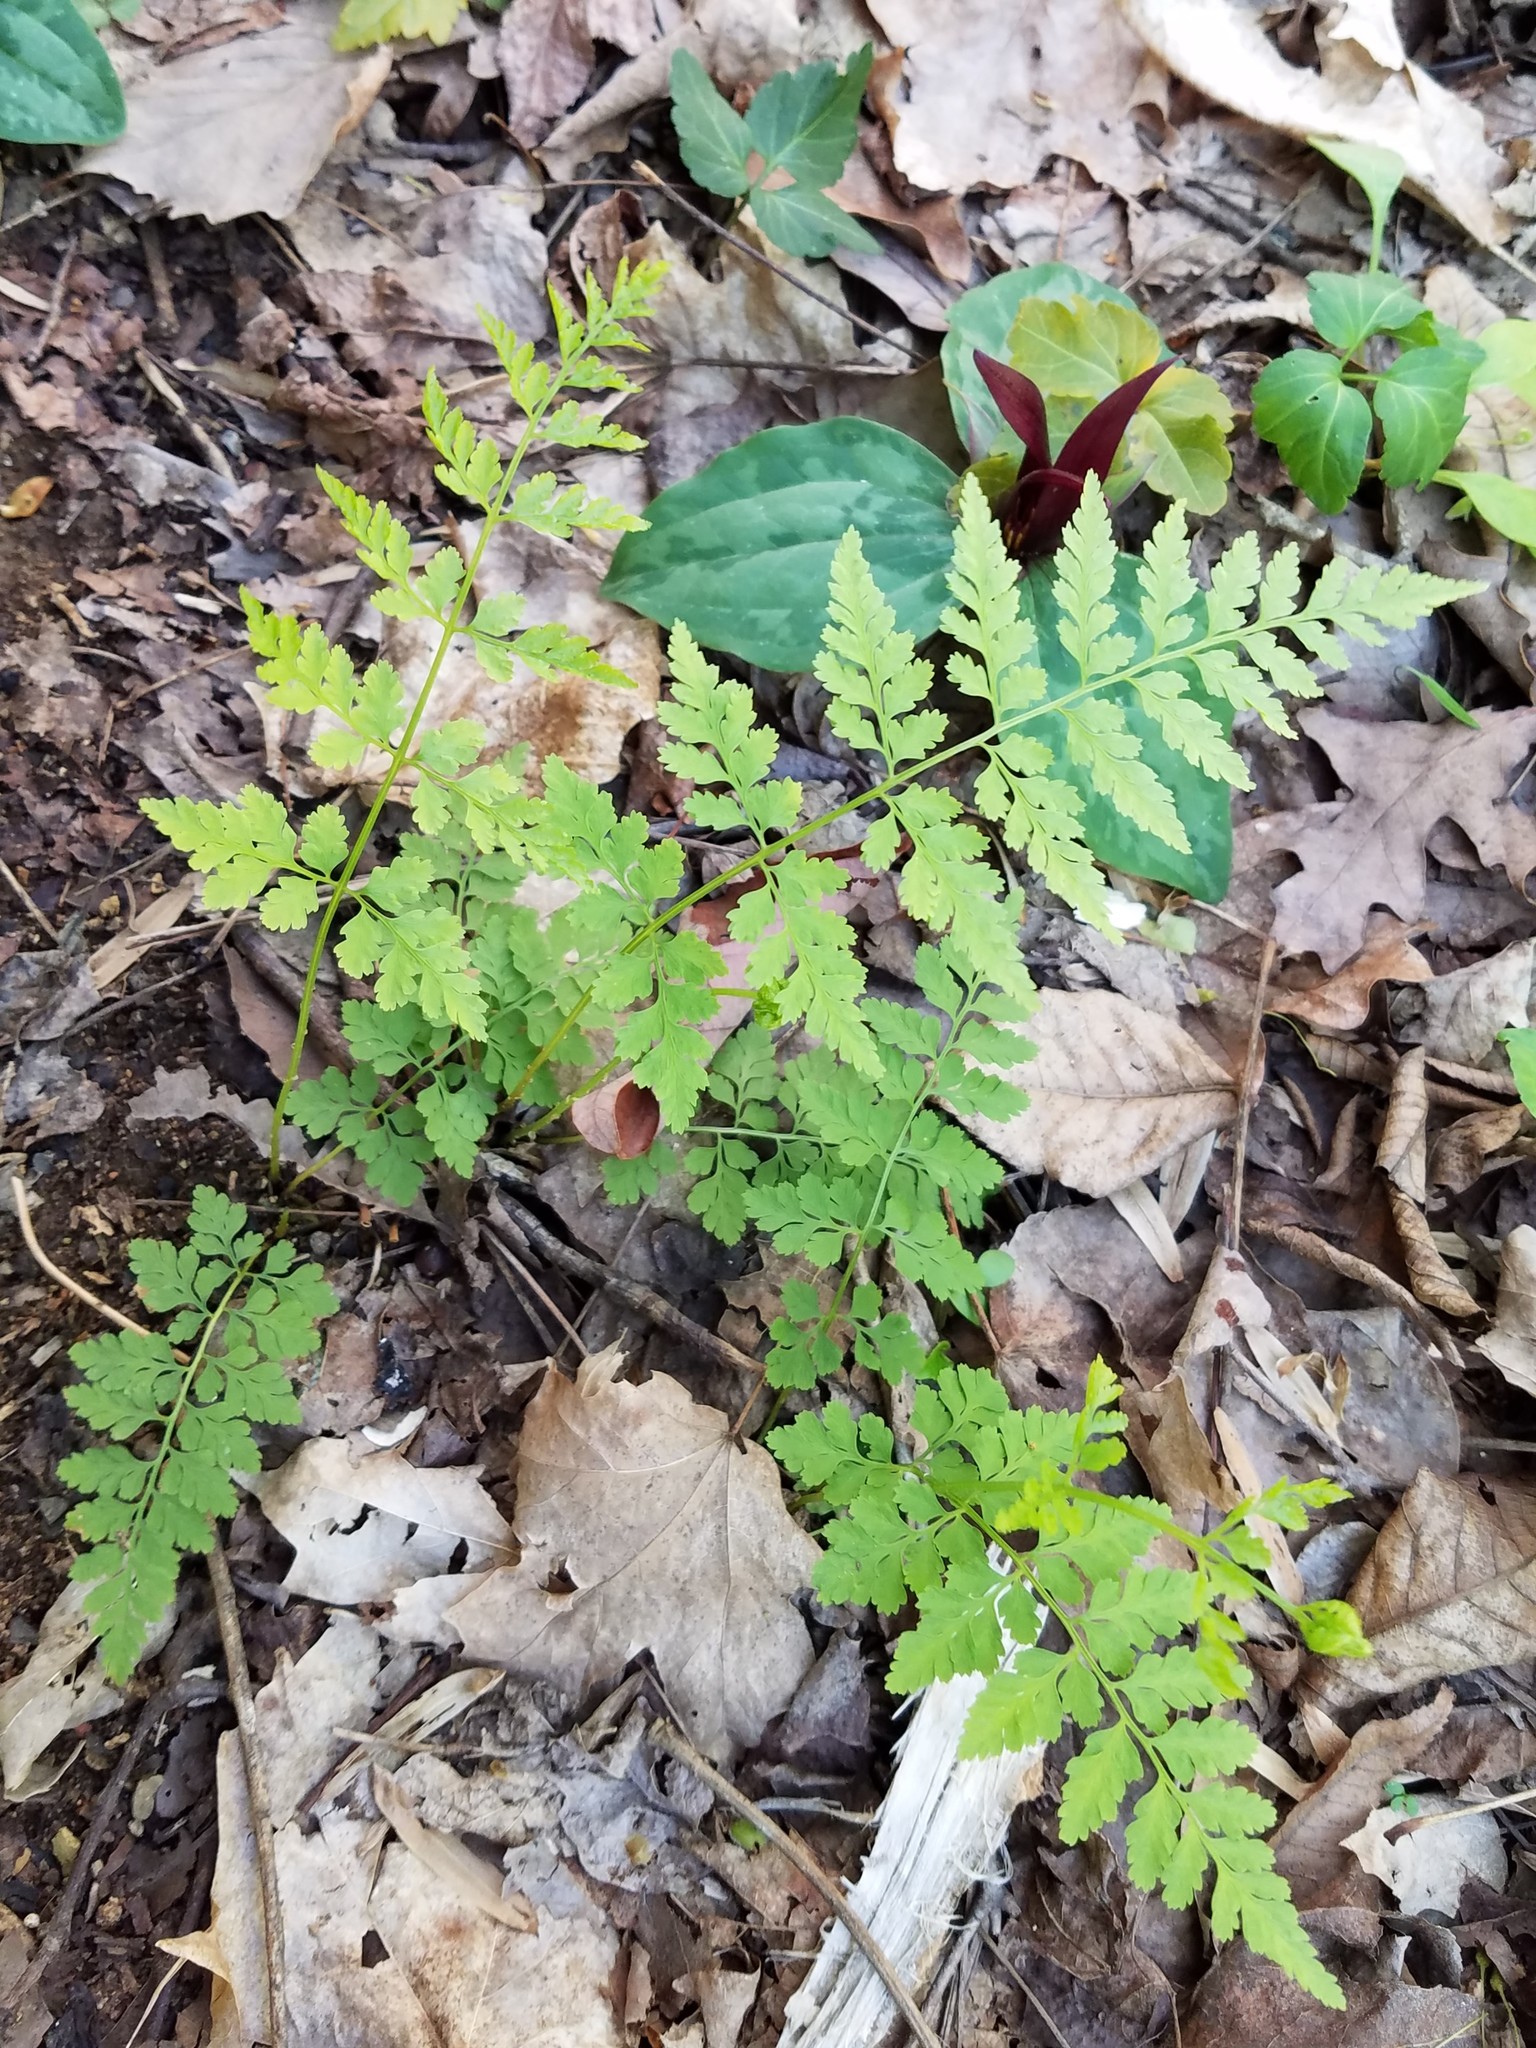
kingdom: Plantae
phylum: Tracheophyta
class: Polypodiopsida
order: Polypodiales
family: Cystopteridaceae
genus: Cystopteris
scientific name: Cystopteris protrusa
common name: Lowland brittle fern
